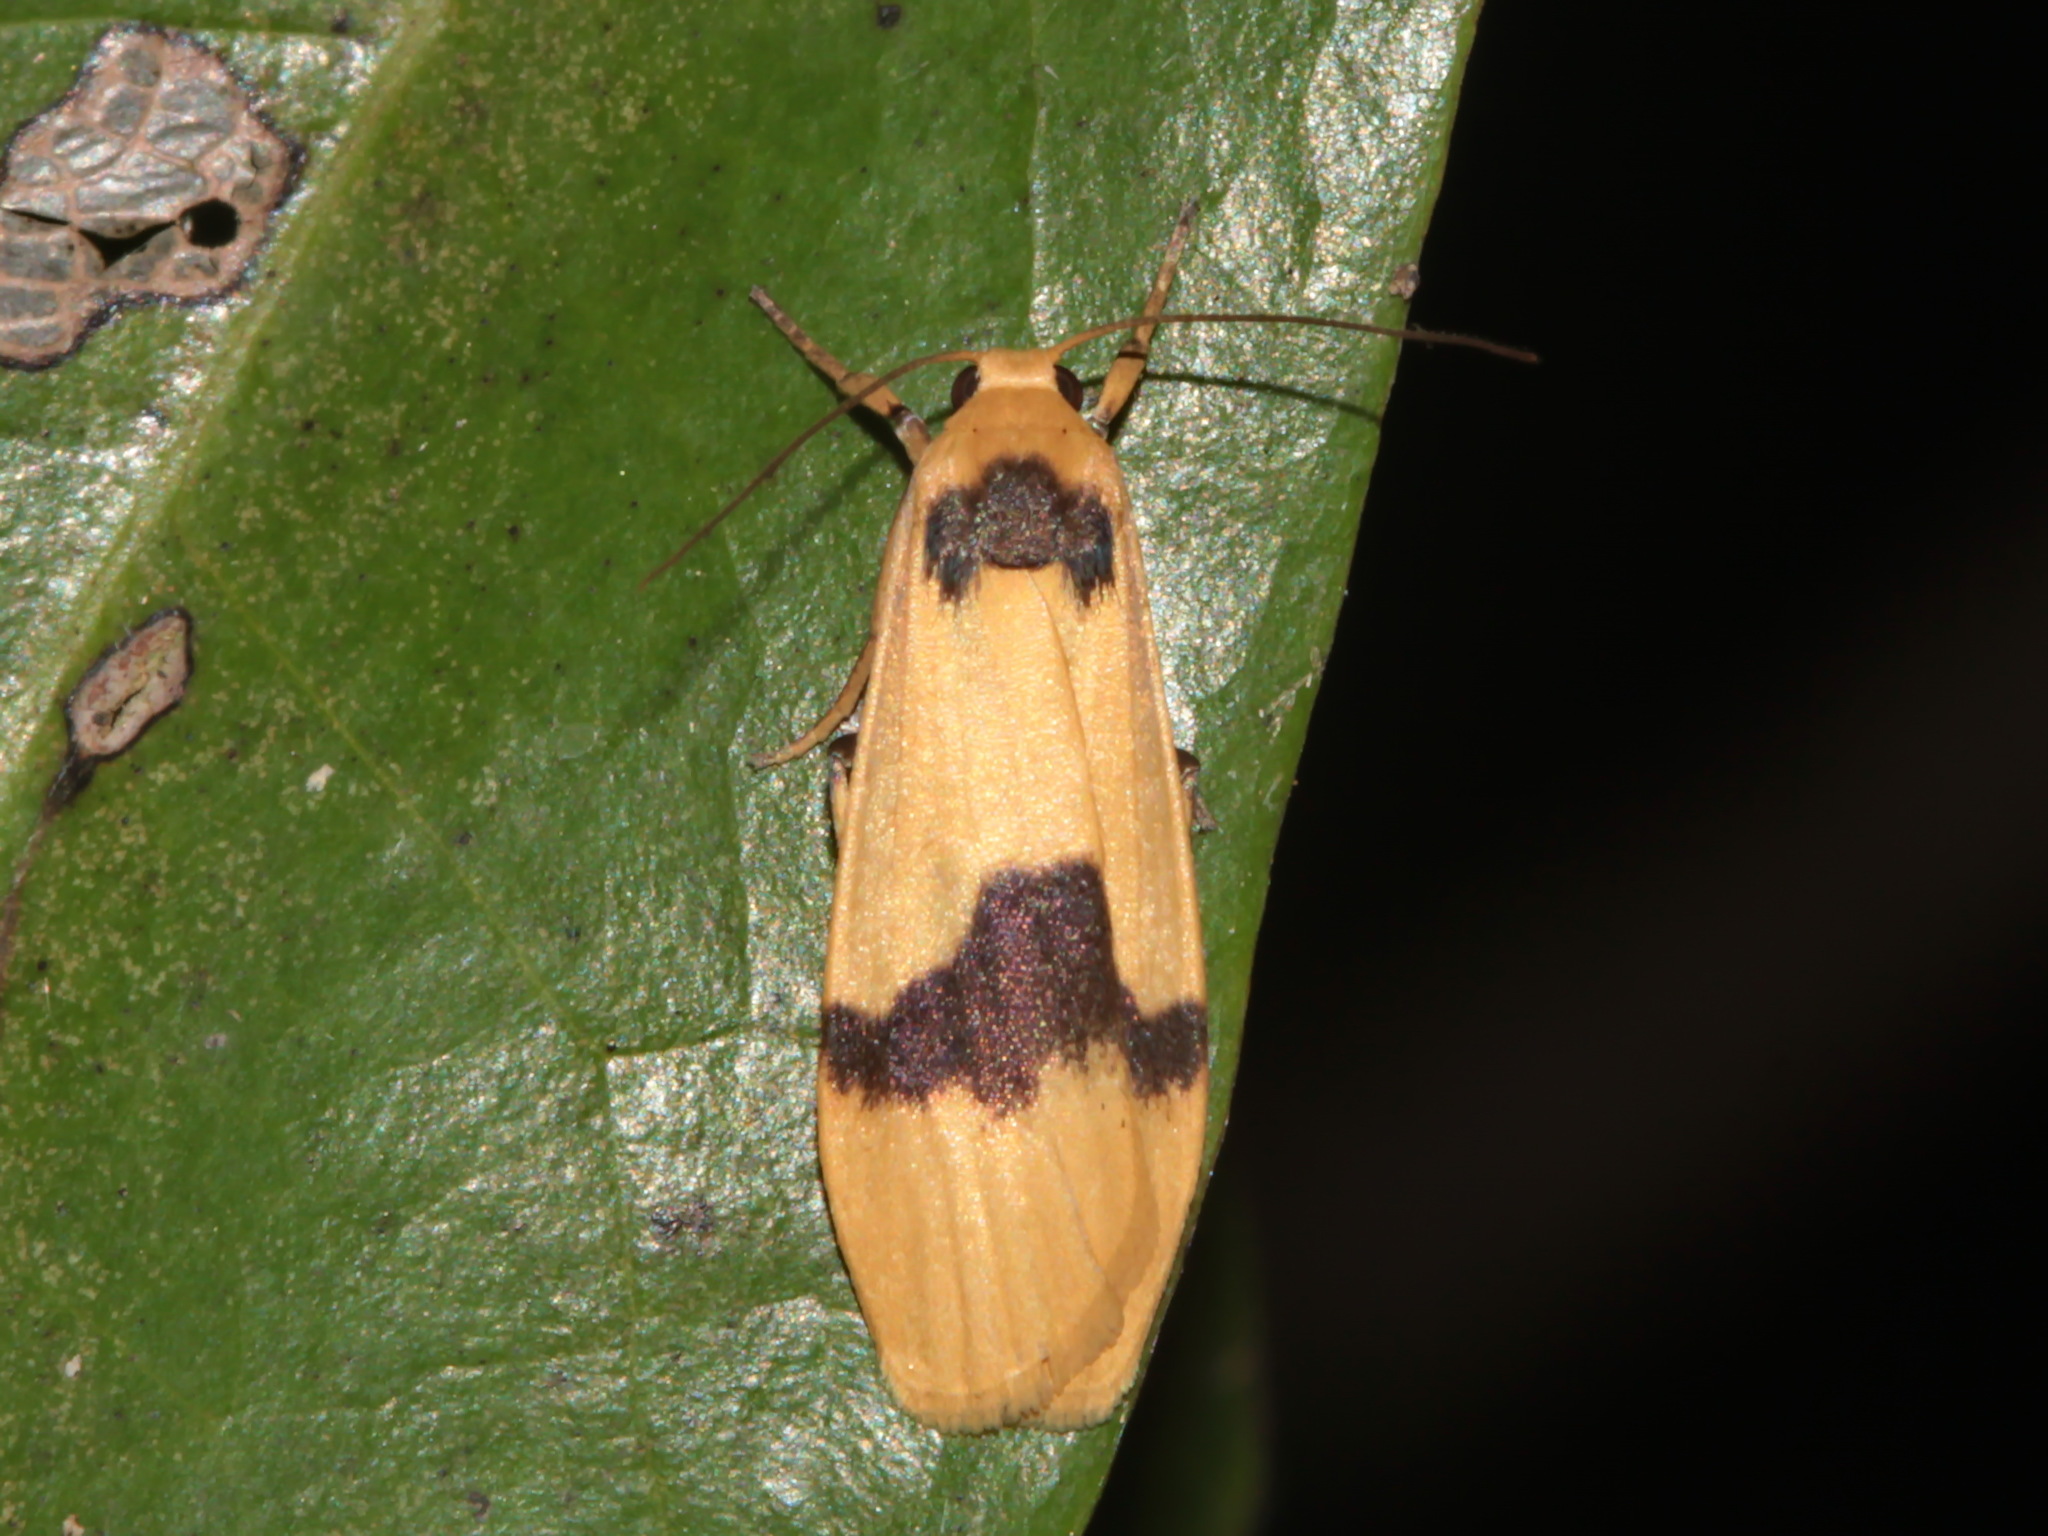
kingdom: Animalia
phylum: Arthropoda
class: Insecta
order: Lepidoptera
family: Erebidae
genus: Brunia
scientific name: Brunia lacrima
